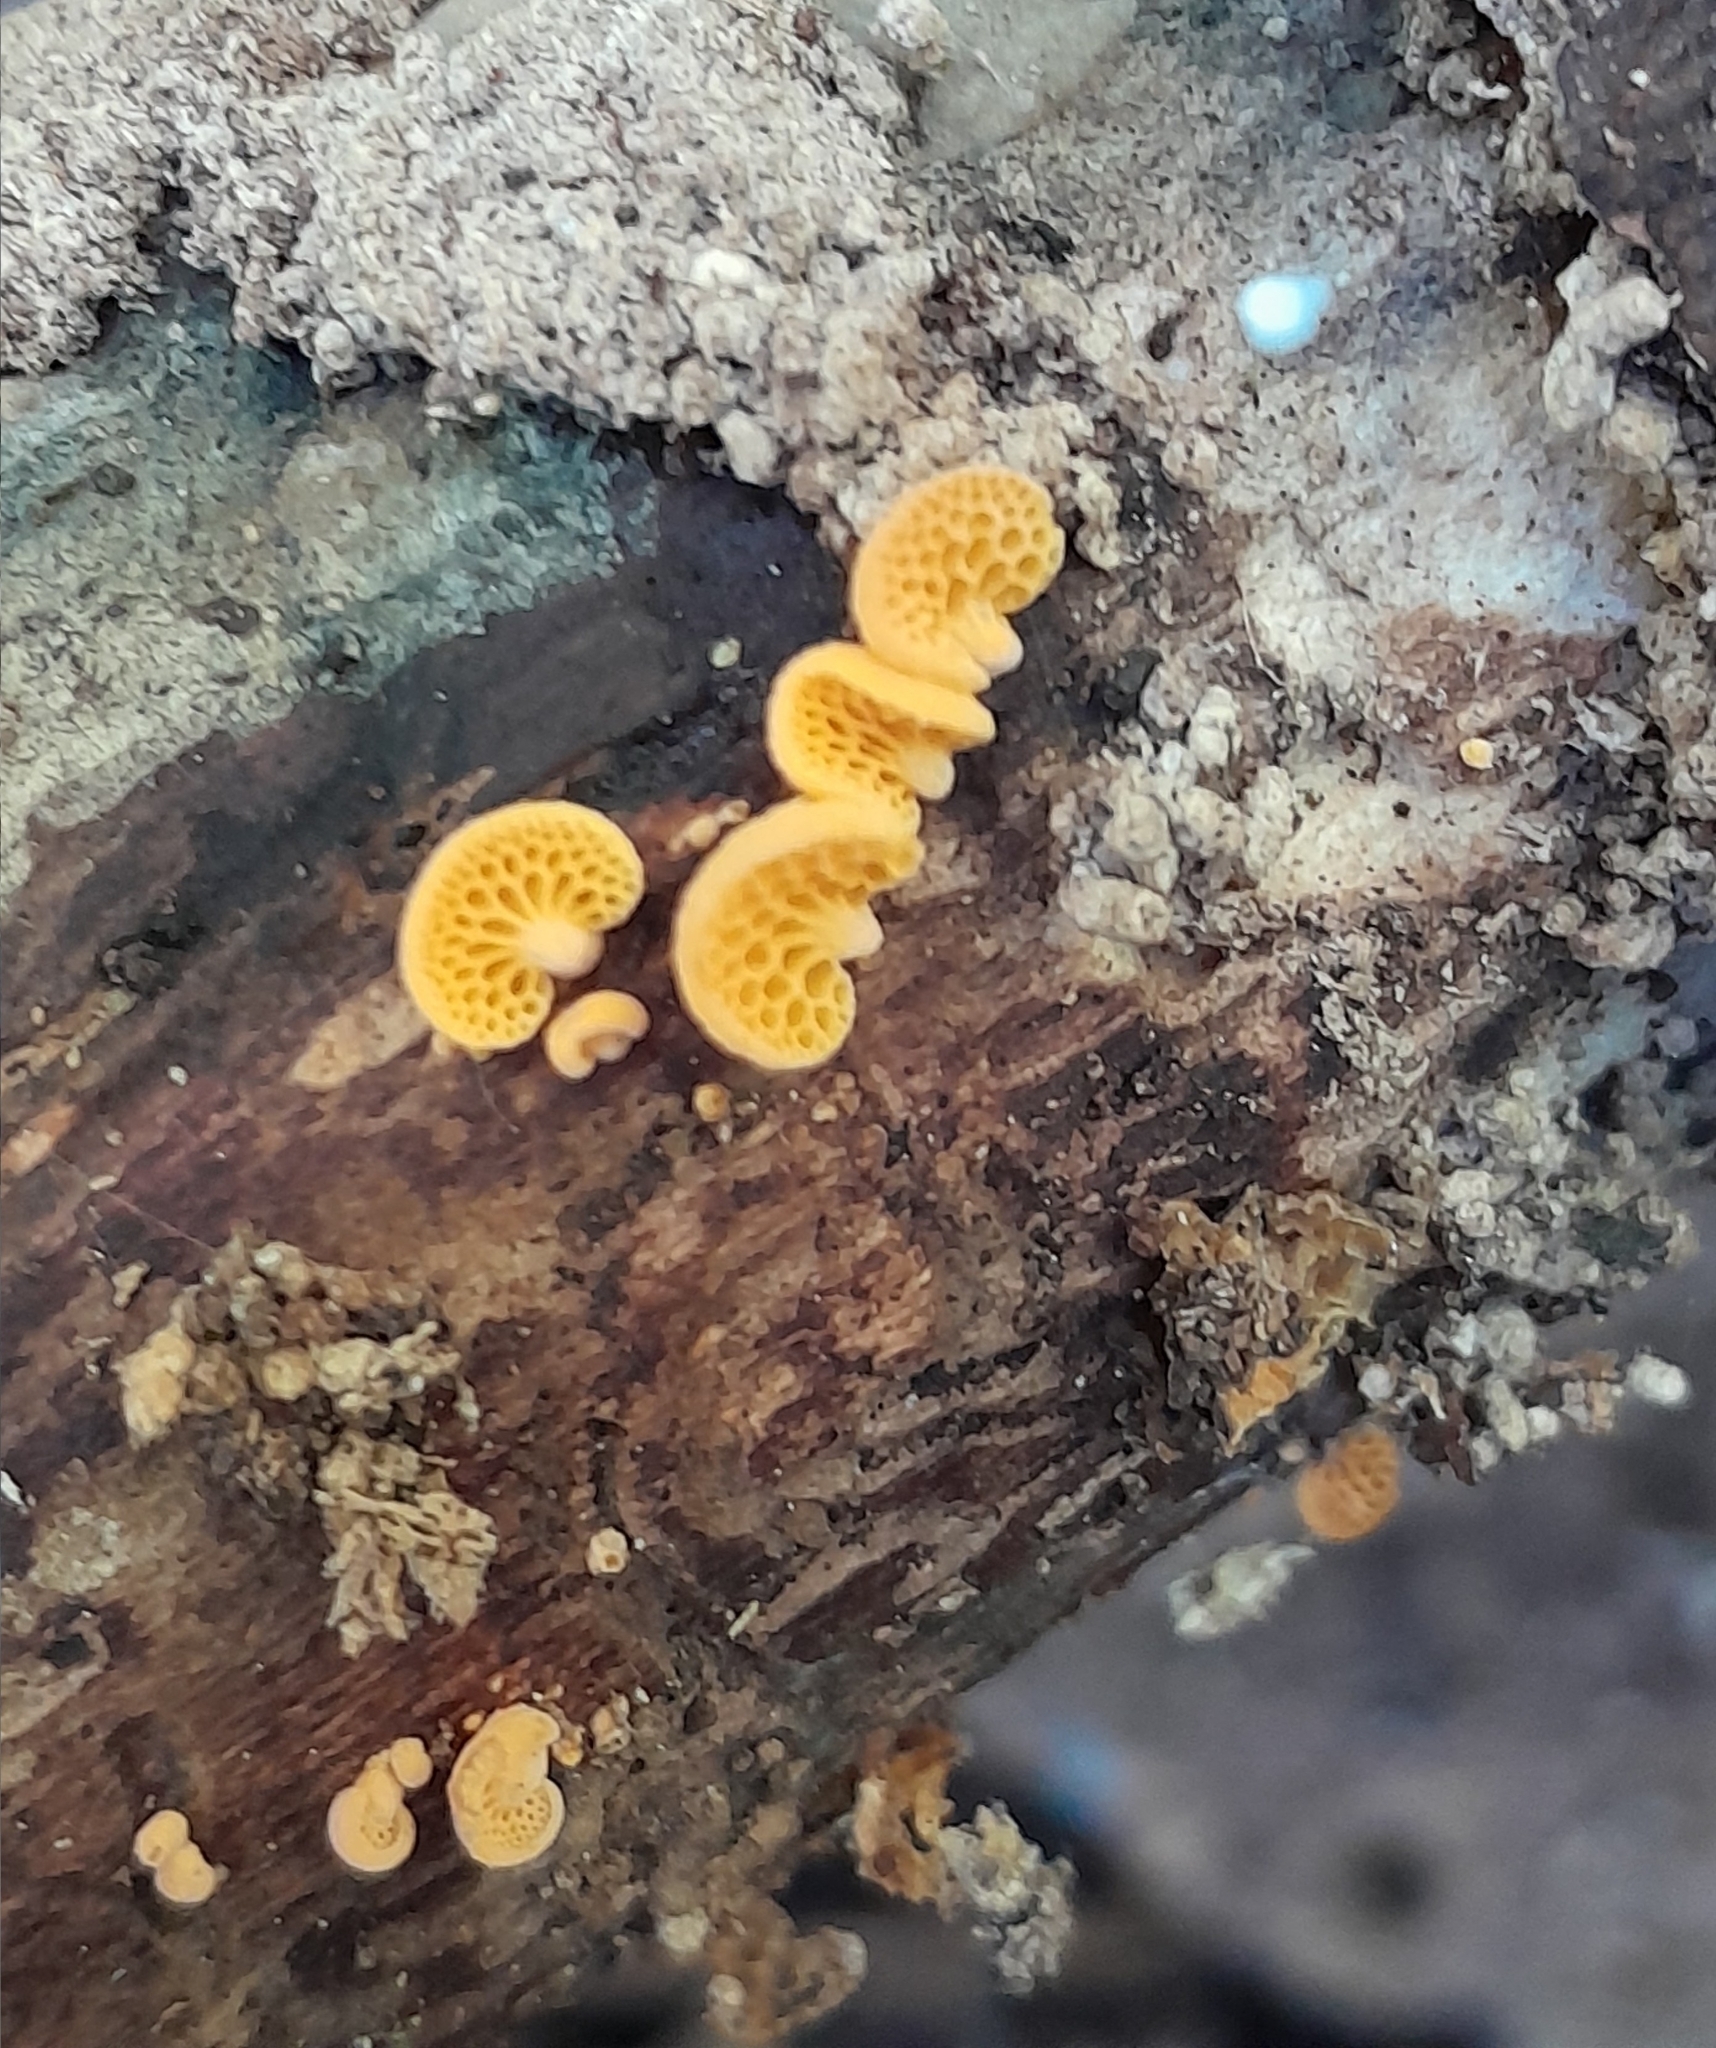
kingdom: Fungi
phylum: Basidiomycota
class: Agaricomycetes
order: Agaricales
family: Mycenaceae
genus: Favolaschia
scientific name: Favolaschia claudopus
